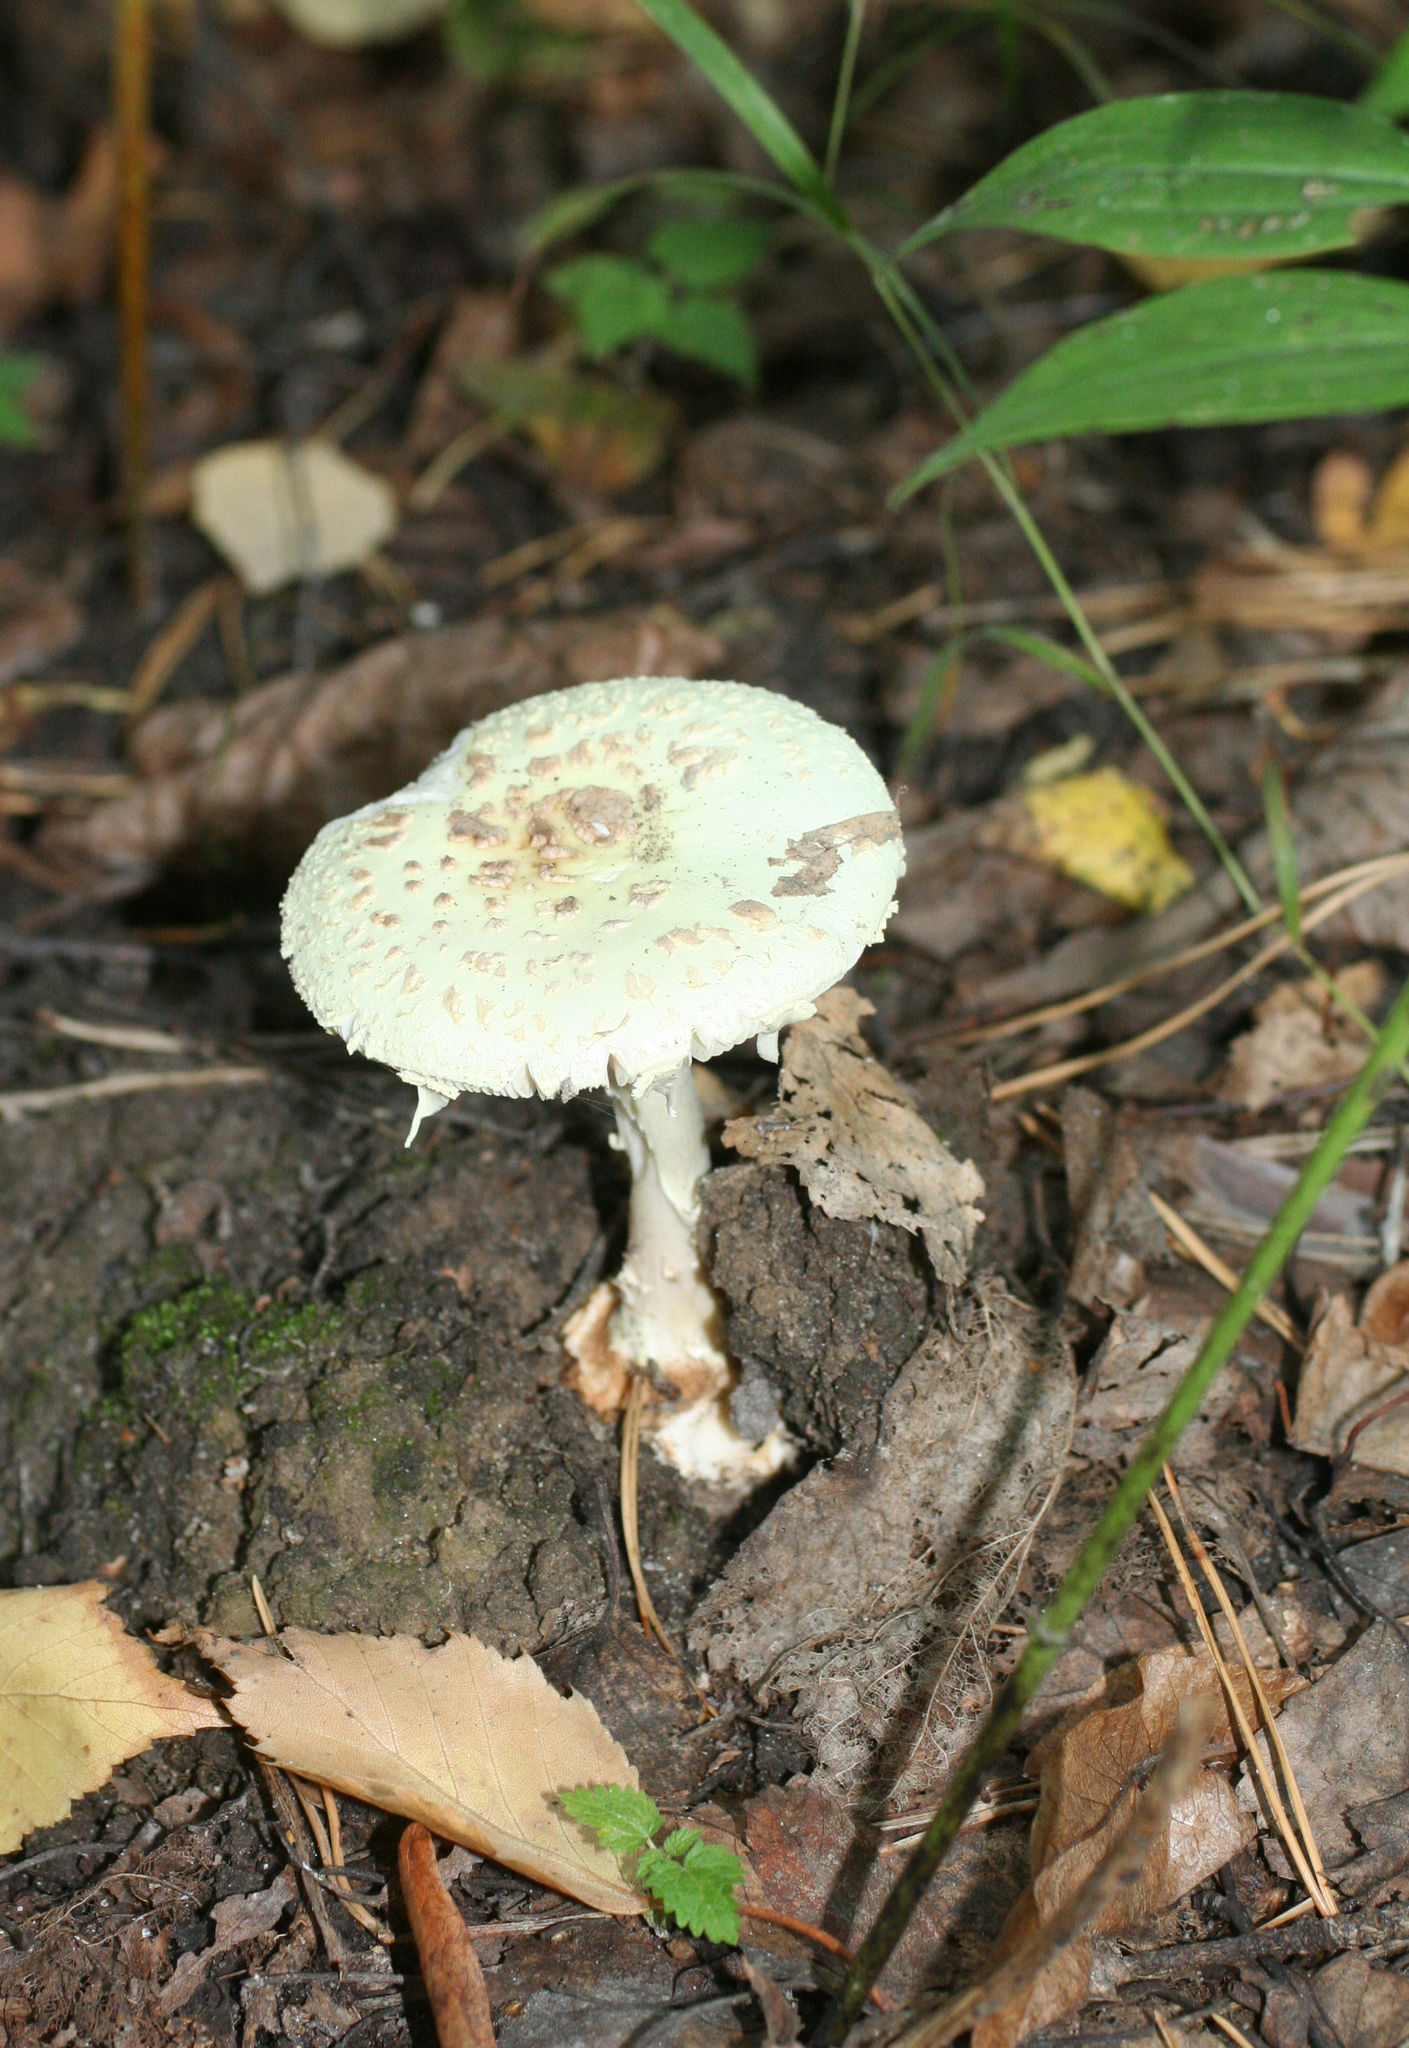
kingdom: Fungi
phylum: Basidiomycota
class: Agaricomycetes
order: Agaricales
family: Amanitaceae
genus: Amanita
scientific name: Amanita citrina
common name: False death-cap
